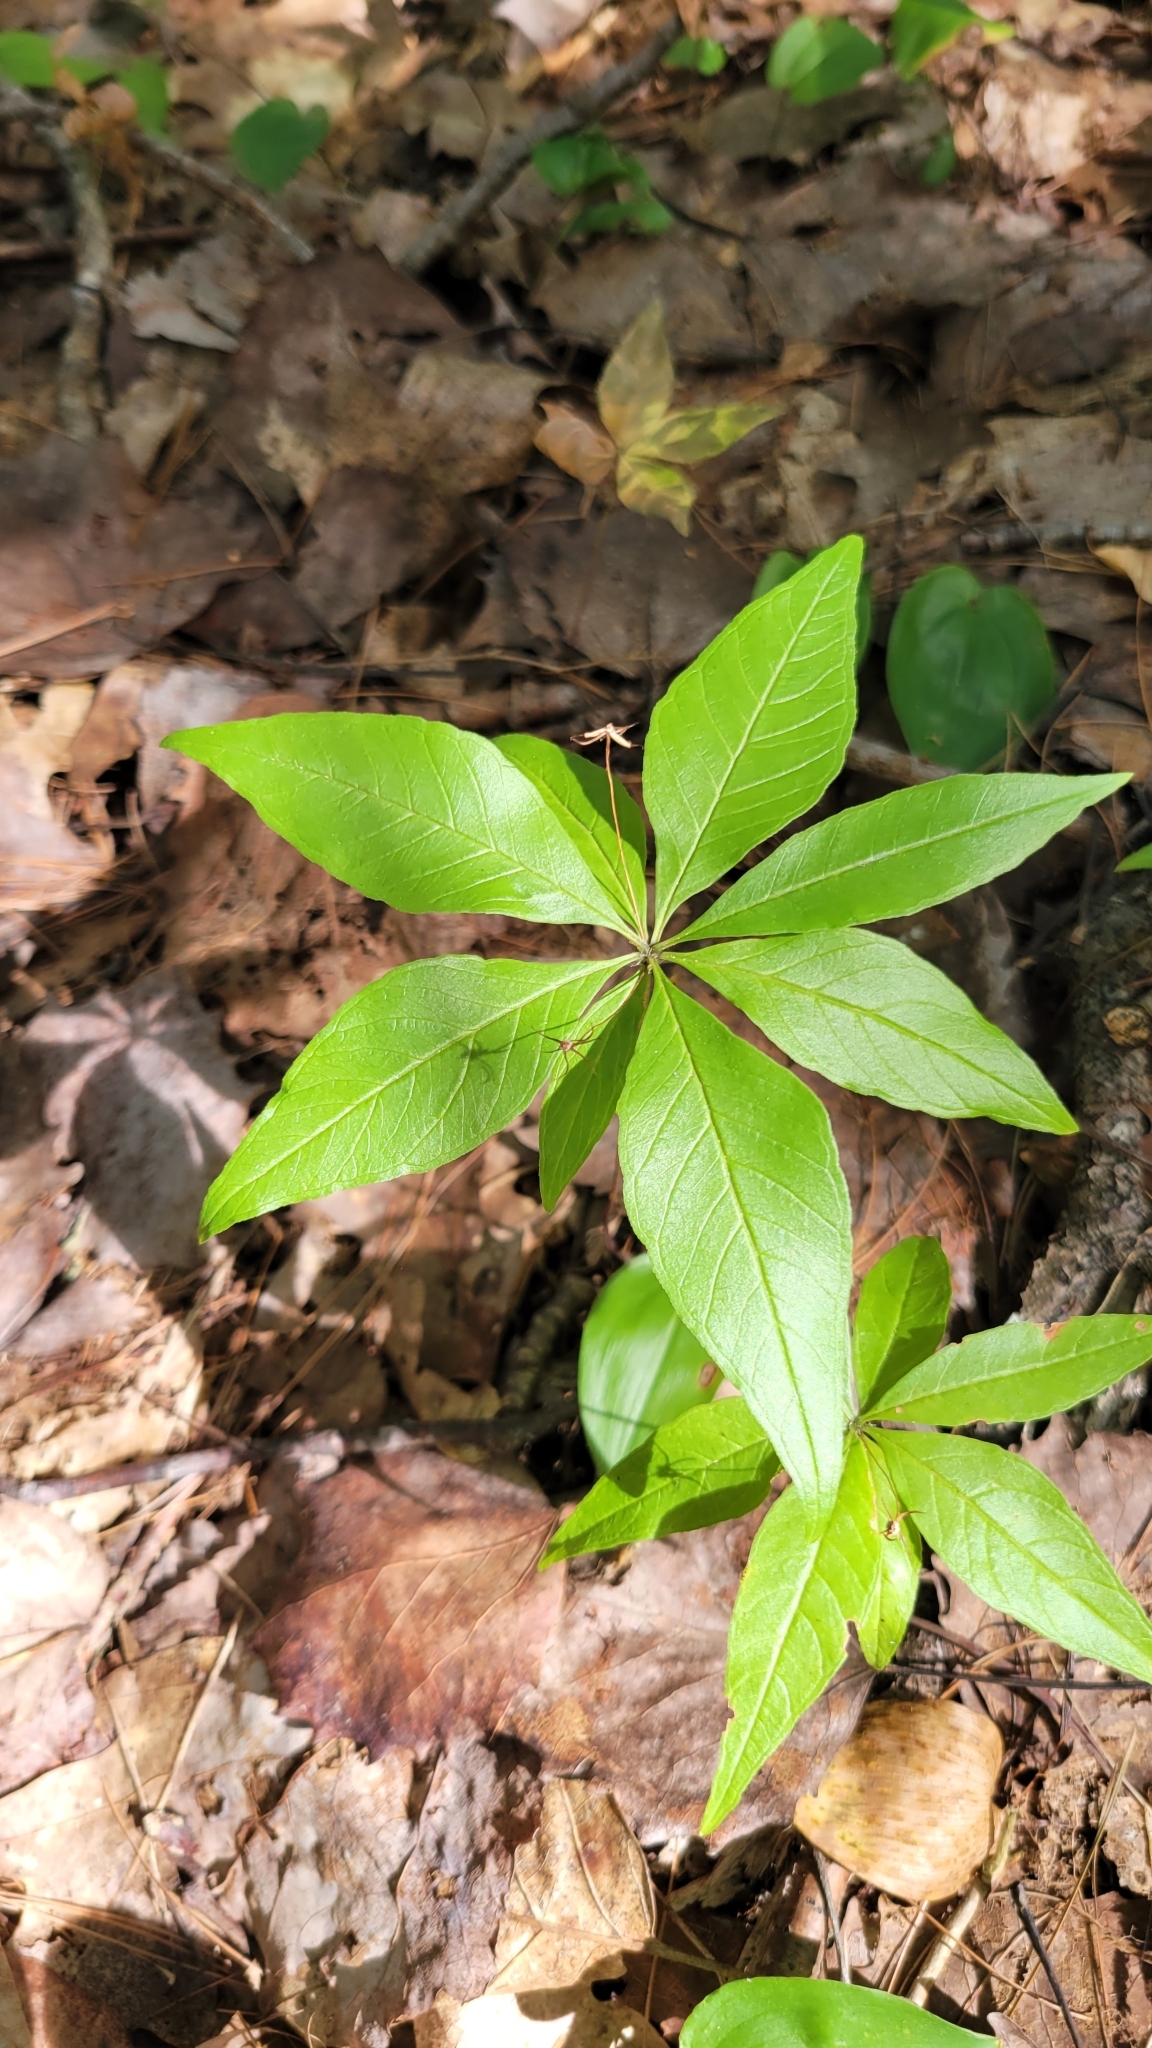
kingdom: Plantae
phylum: Tracheophyta
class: Magnoliopsida
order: Ericales
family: Primulaceae
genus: Lysimachia
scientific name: Lysimachia borealis
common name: American starflower
